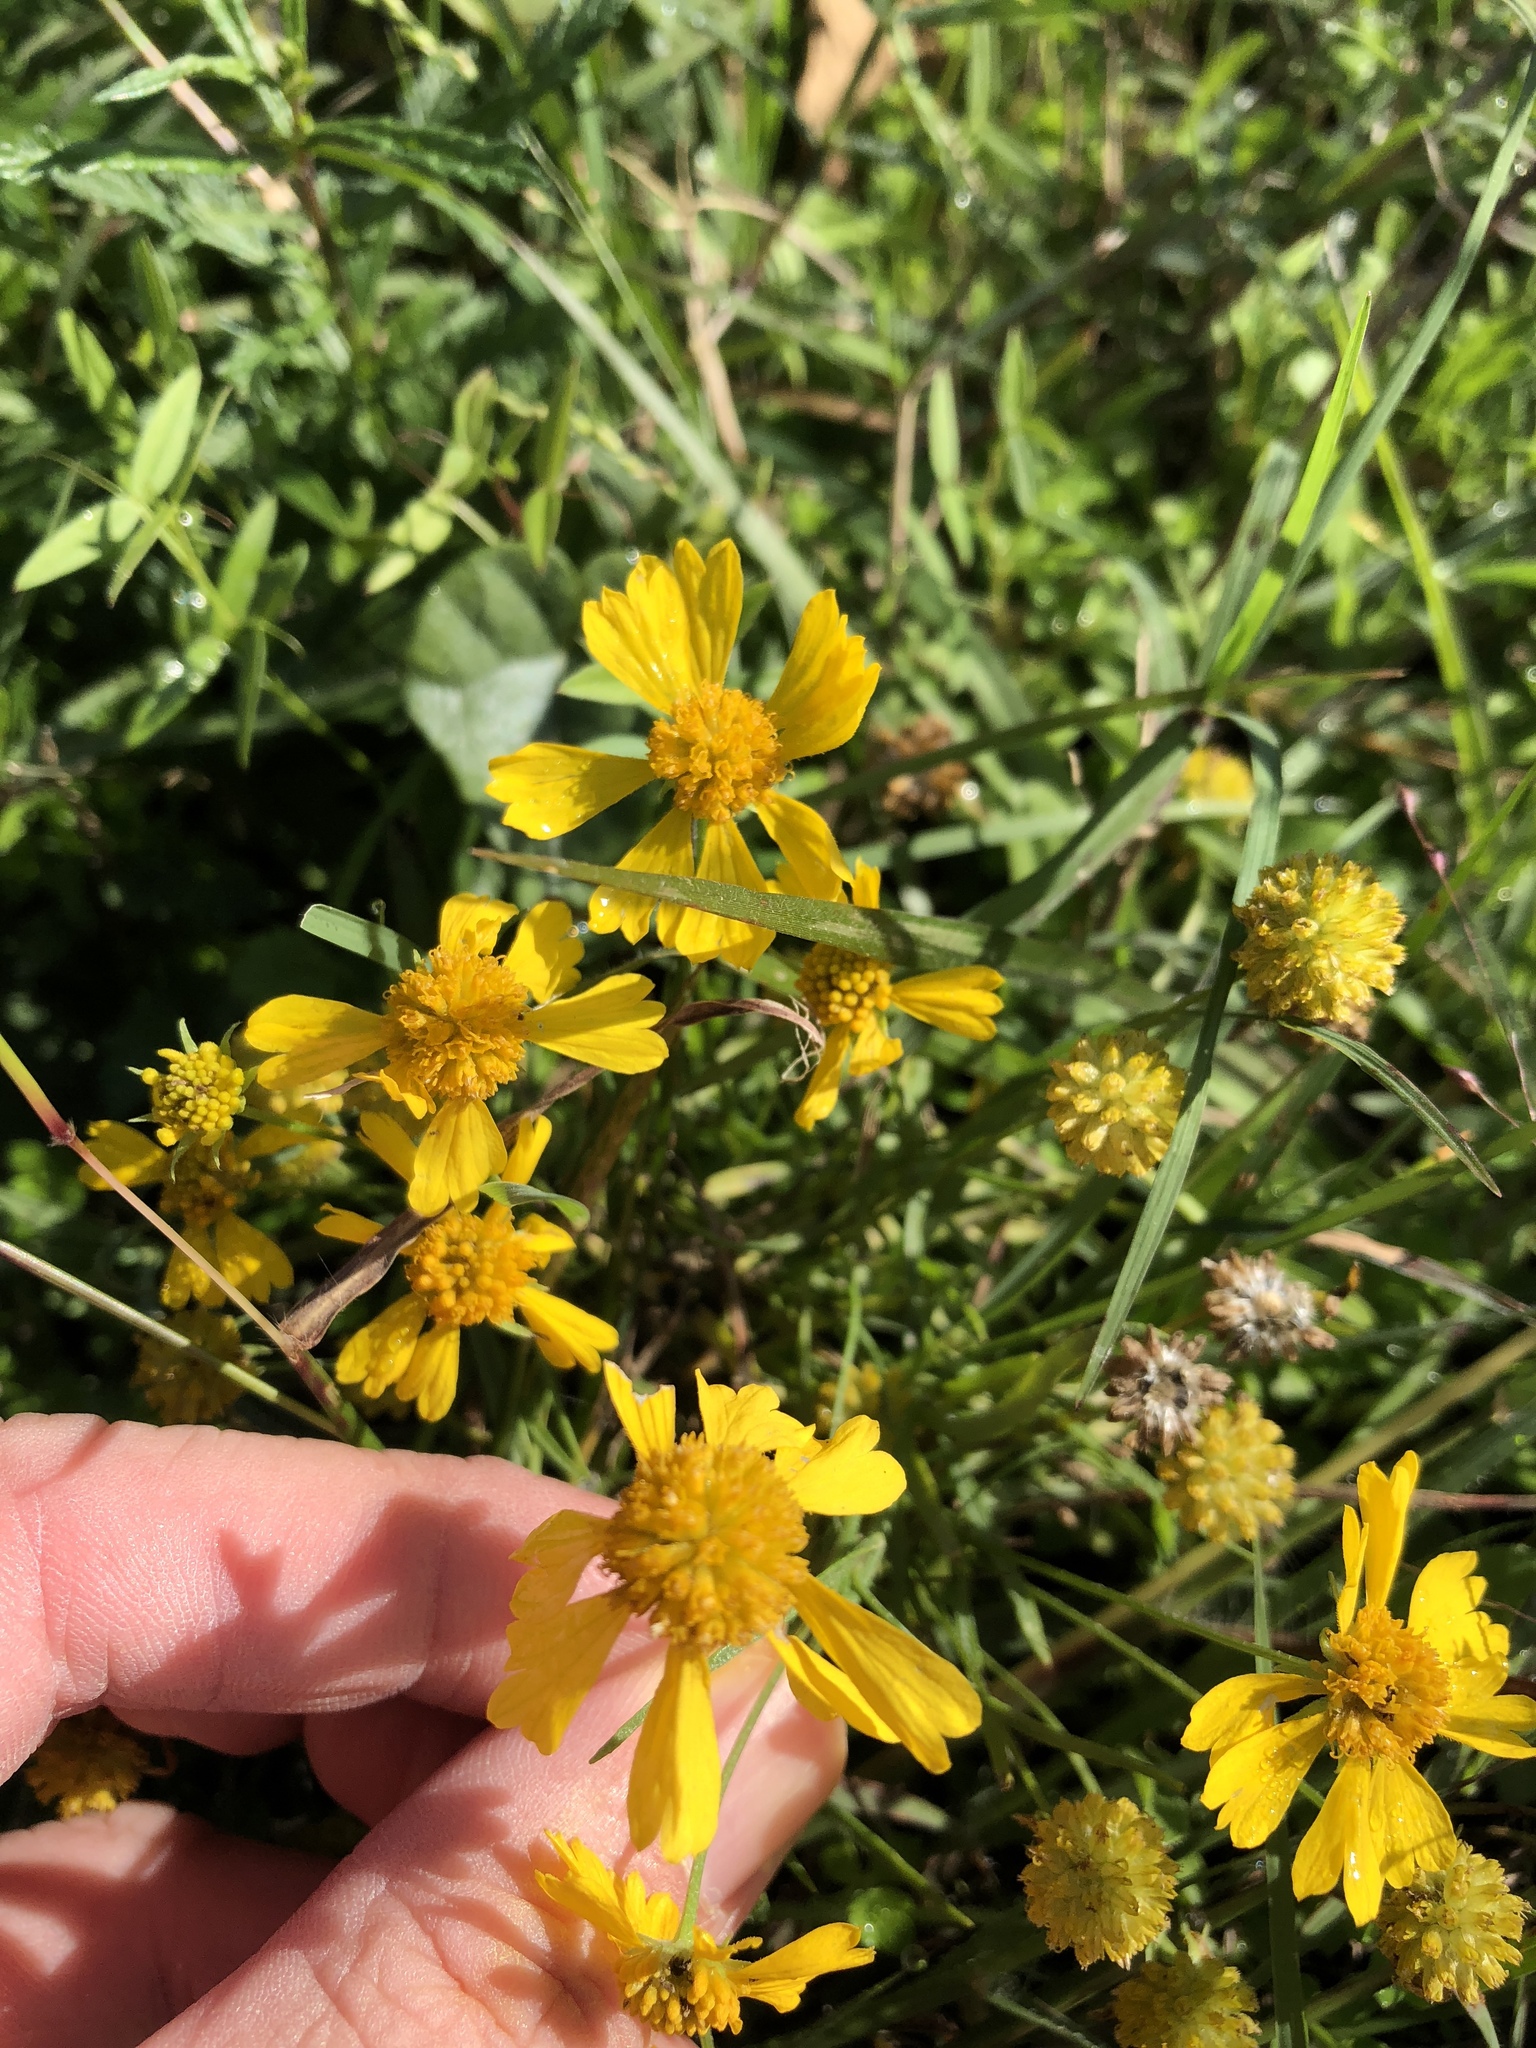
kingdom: Plantae
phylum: Tracheophyta
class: Magnoliopsida
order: Asterales
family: Asteraceae
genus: Helenium
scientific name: Helenium amarum
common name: Bitter sneezeweed
